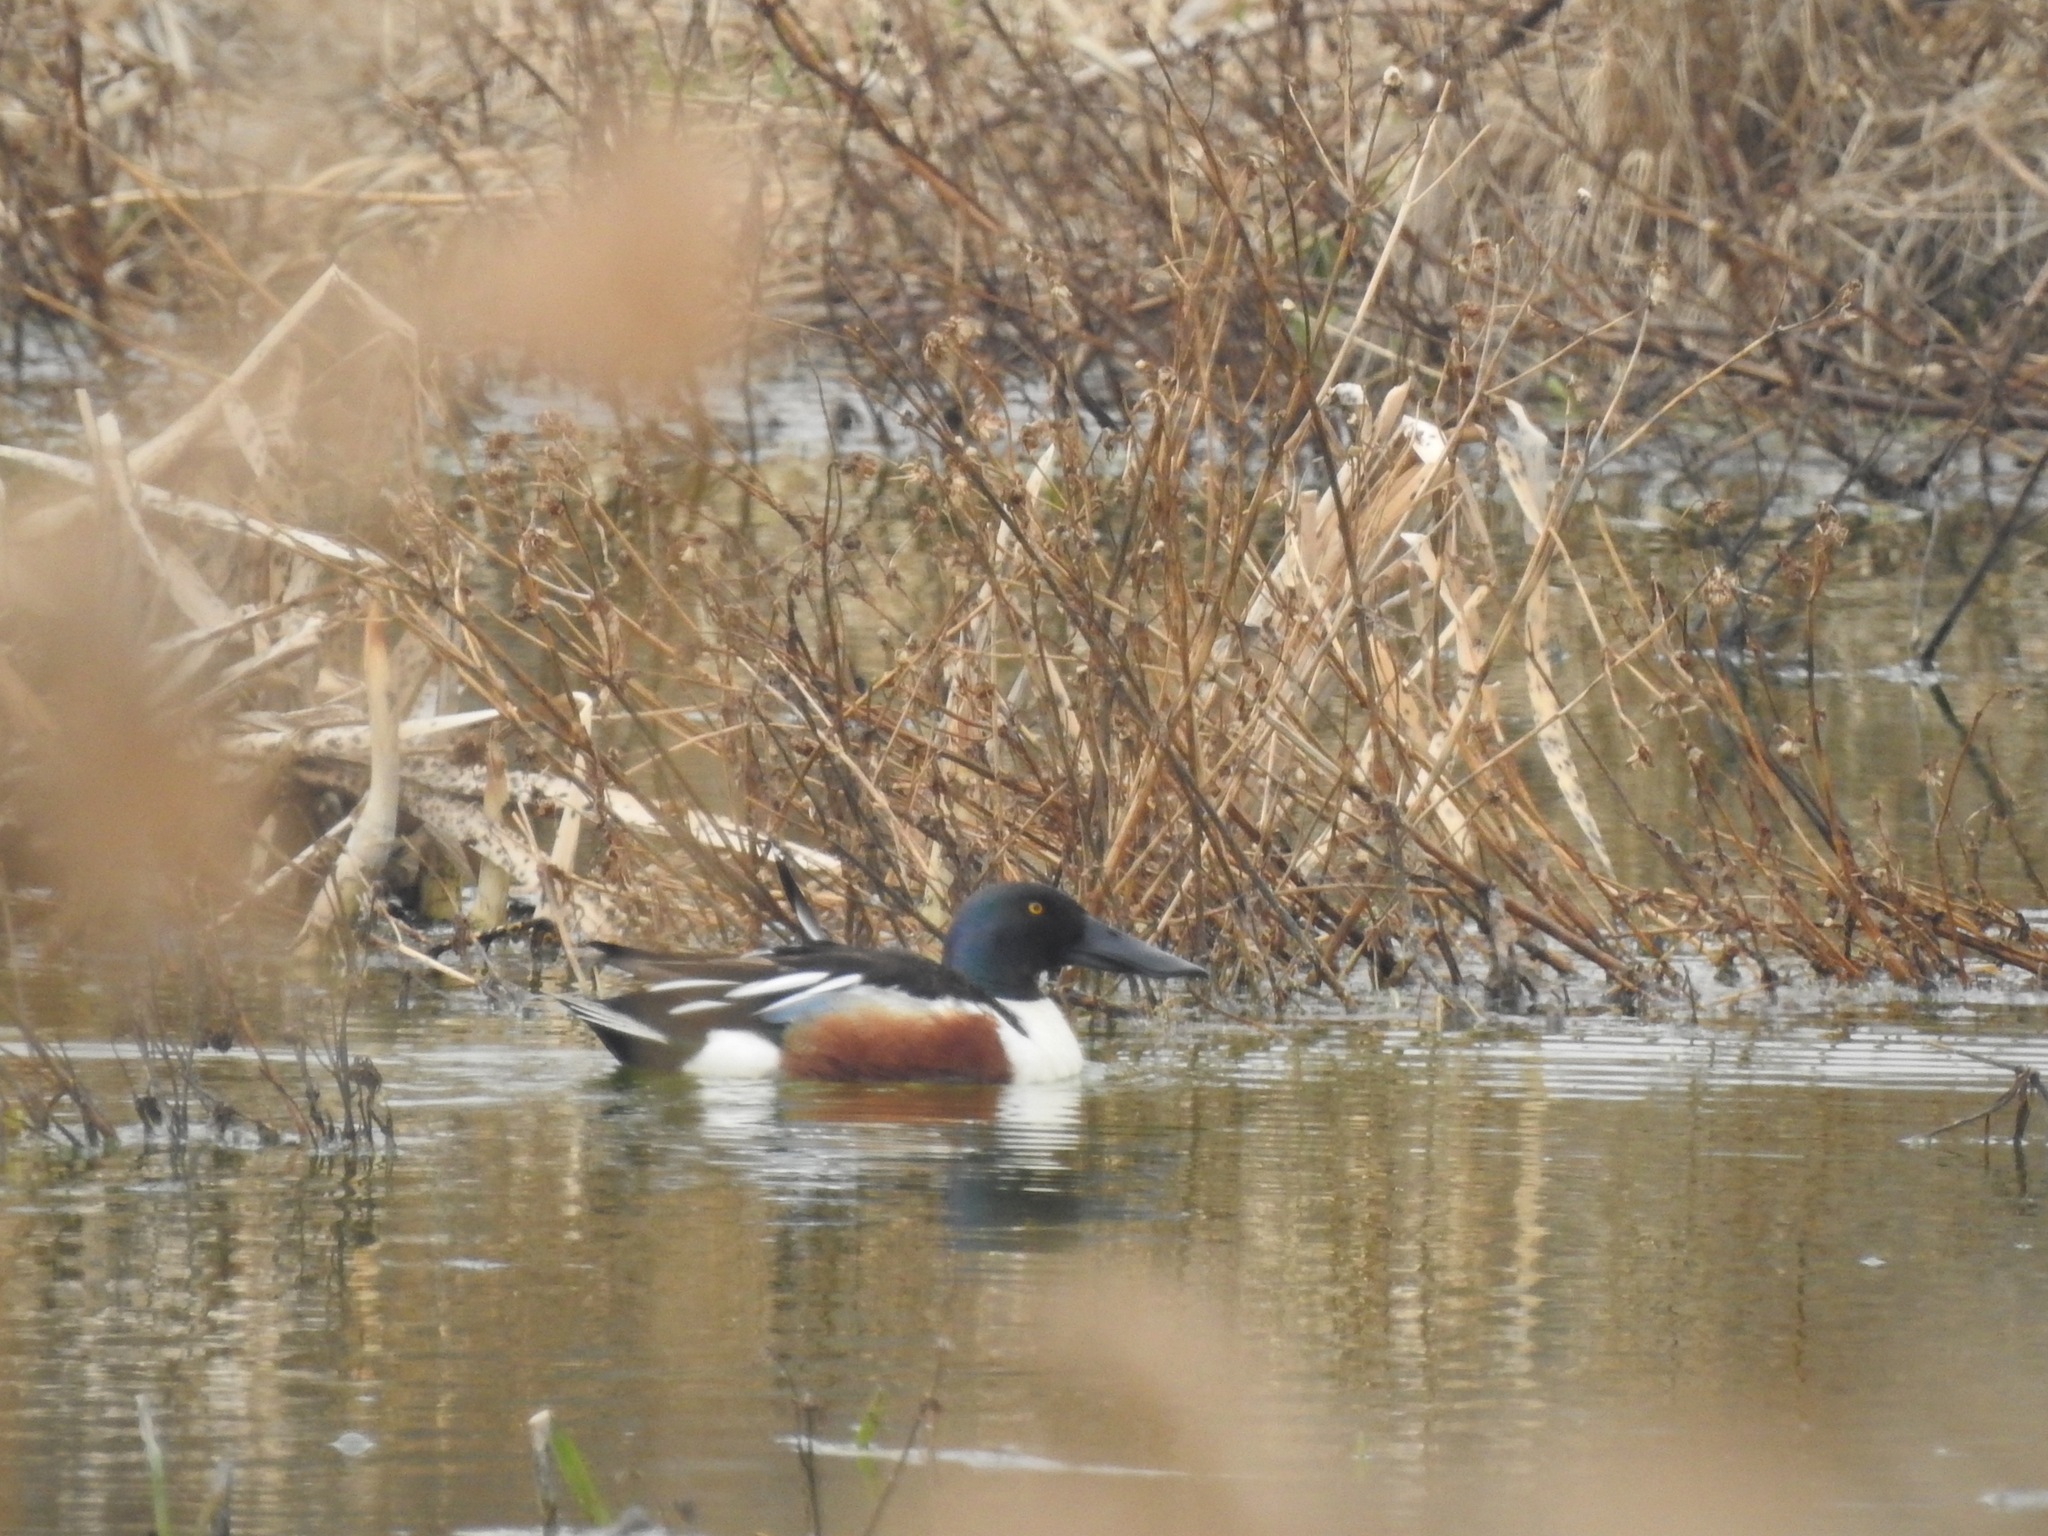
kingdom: Animalia
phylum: Chordata
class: Aves
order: Anseriformes
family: Anatidae
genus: Spatula
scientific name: Spatula clypeata
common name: Northern shoveler
